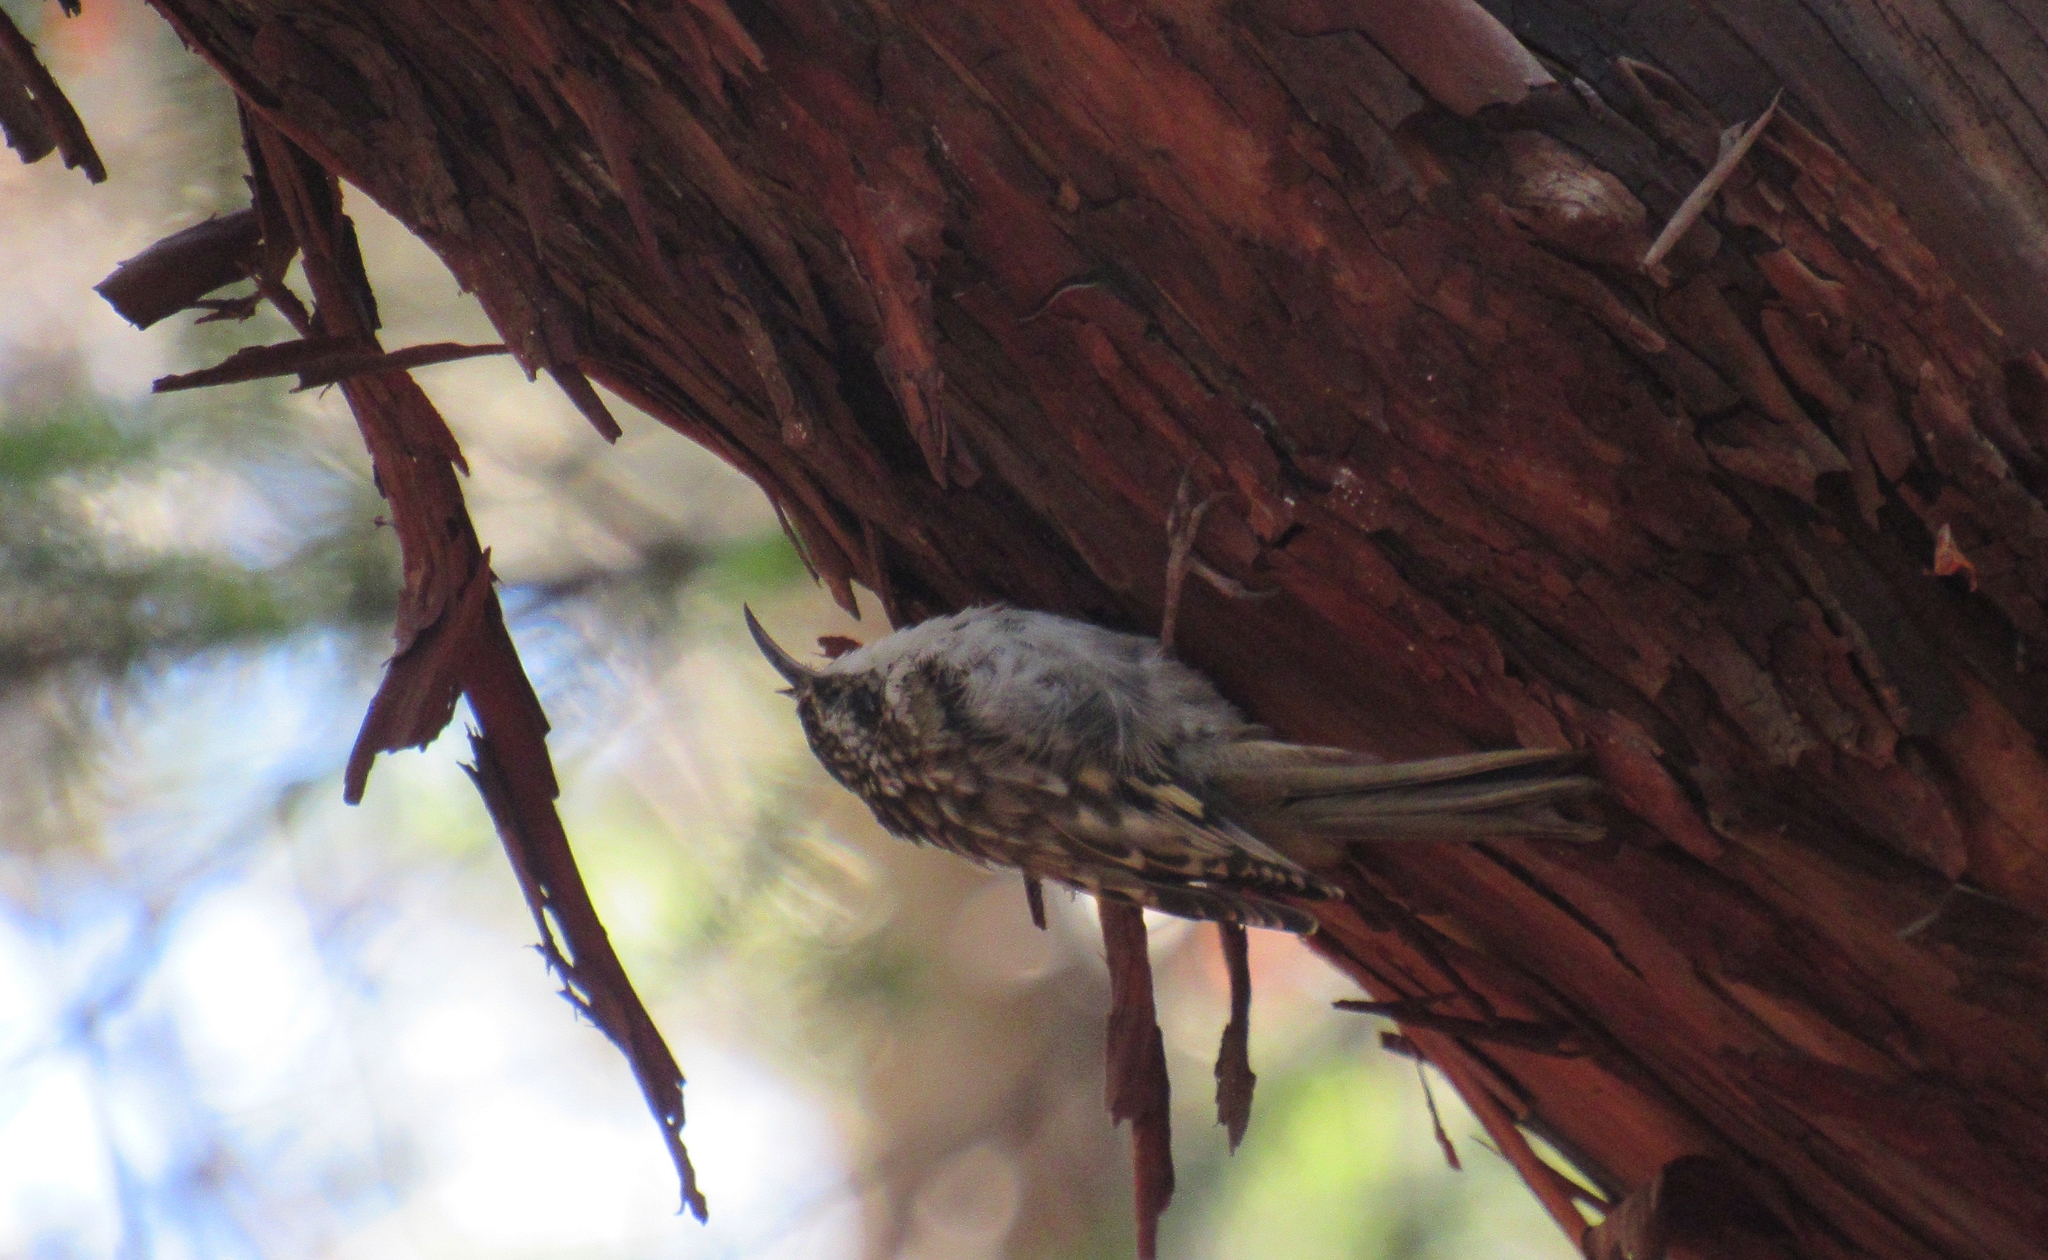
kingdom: Animalia
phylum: Chordata
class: Aves
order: Passeriformes
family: Certhiidae
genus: Certhia
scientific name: Certhia americana
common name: Brown creeper
